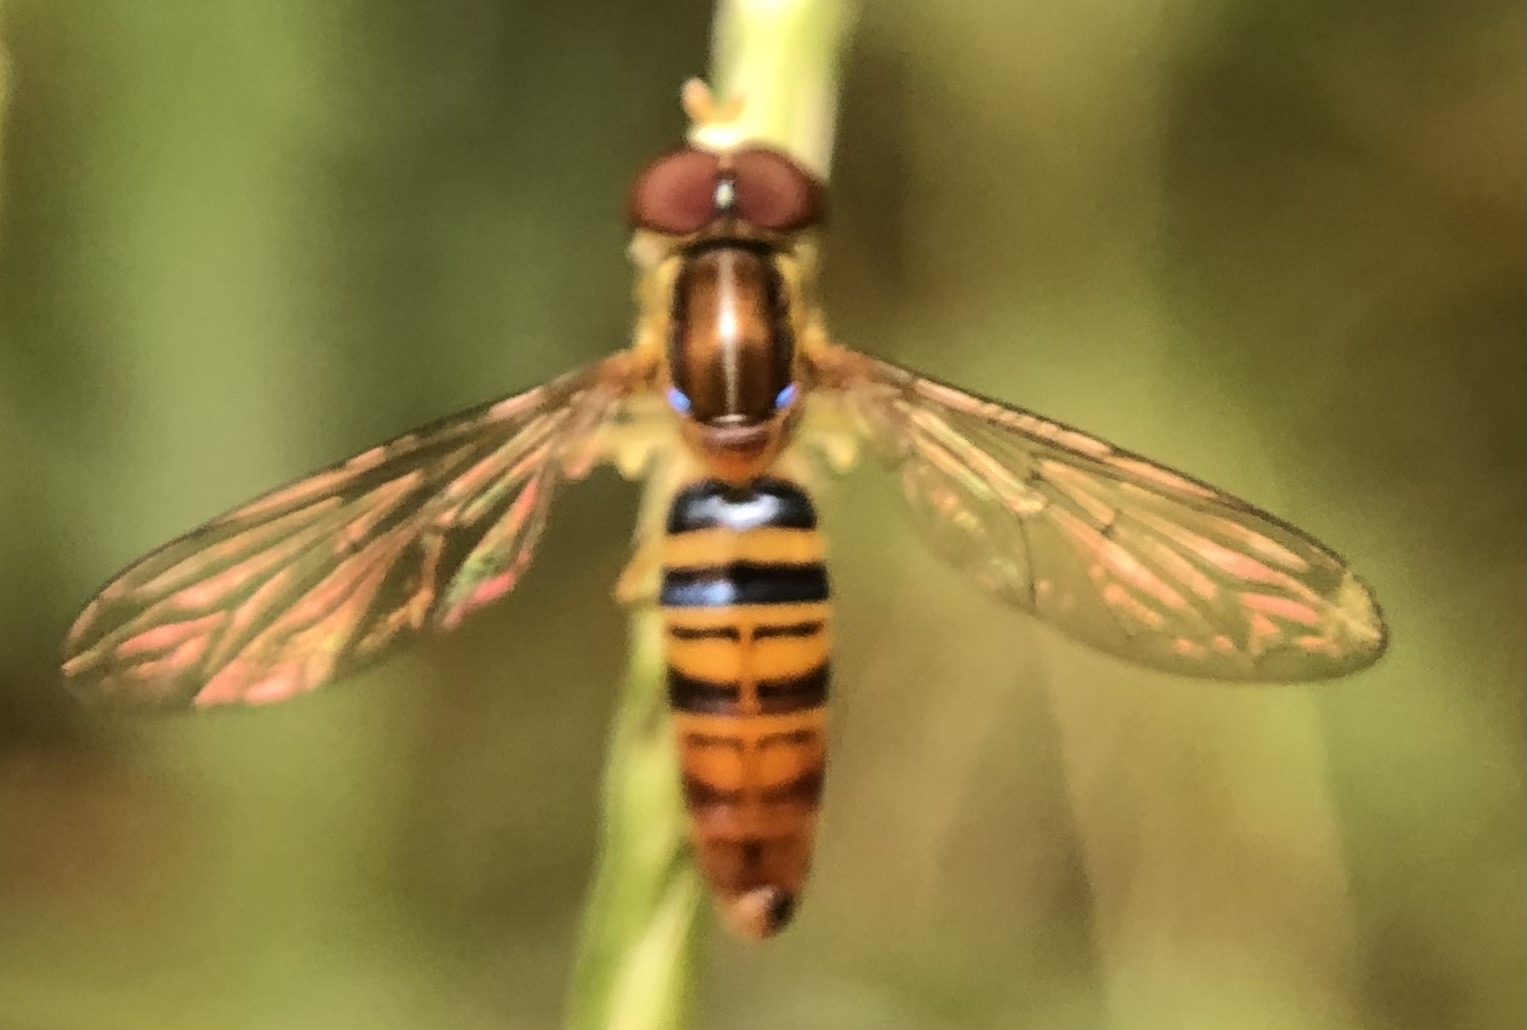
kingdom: Animalia
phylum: Arthropoda
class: Insecta
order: Diptera
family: Syrphidae
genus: Toxomerus
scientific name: Toxomerus politus
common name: Maize calligrapher
